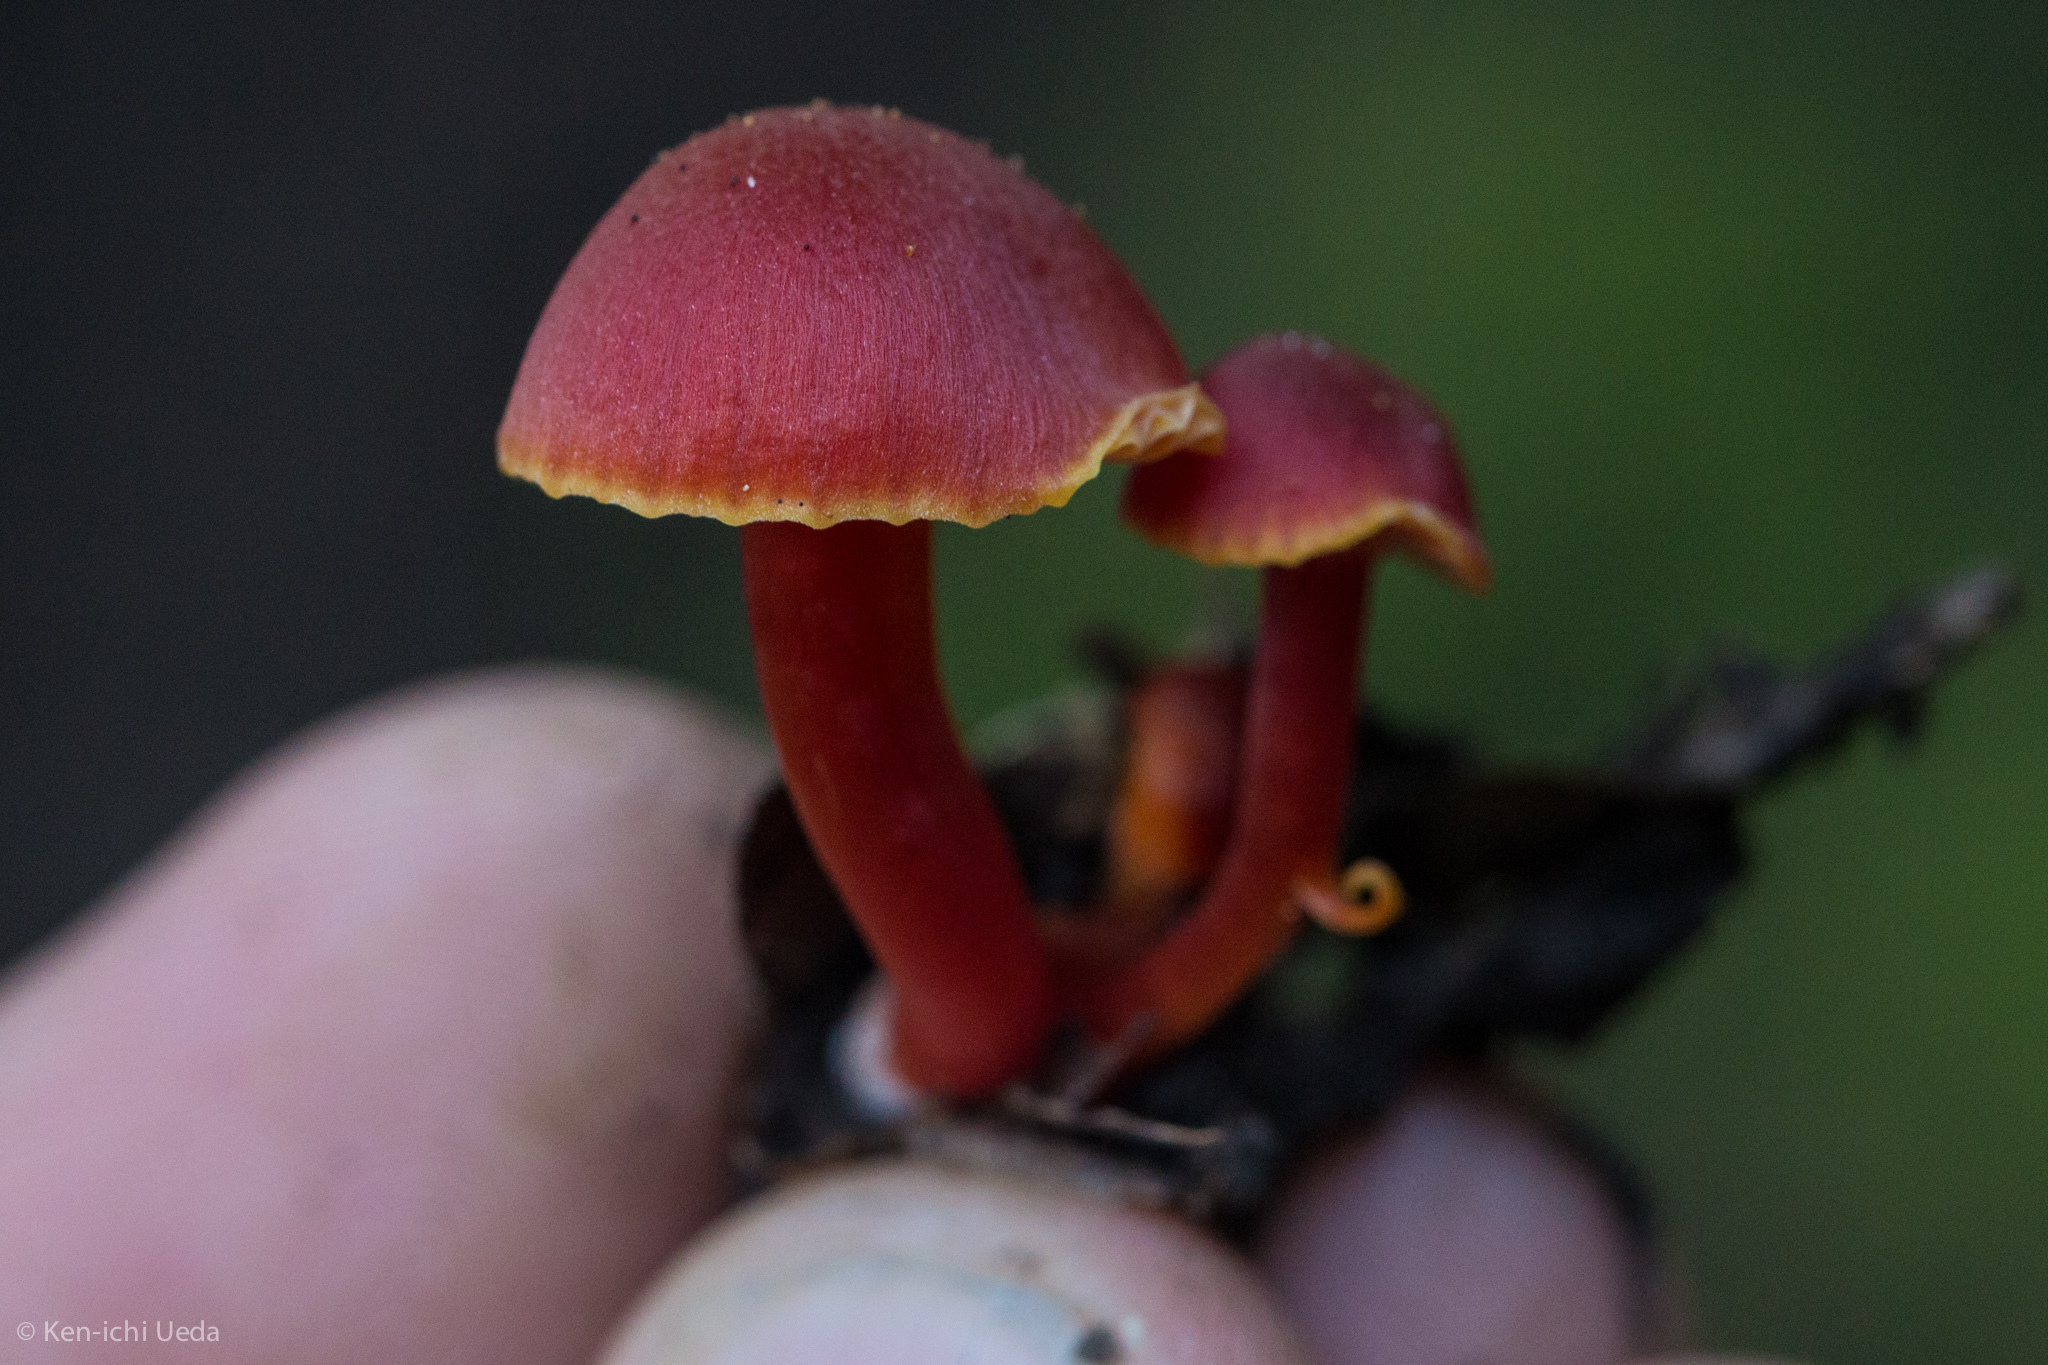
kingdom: Fungi
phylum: Basidiomycota
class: Agaricomycetes
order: Agaricales
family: Hygrophoraceae
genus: Hygrocybe
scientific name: Hygrocybe coccinea
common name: Scarlet hood
